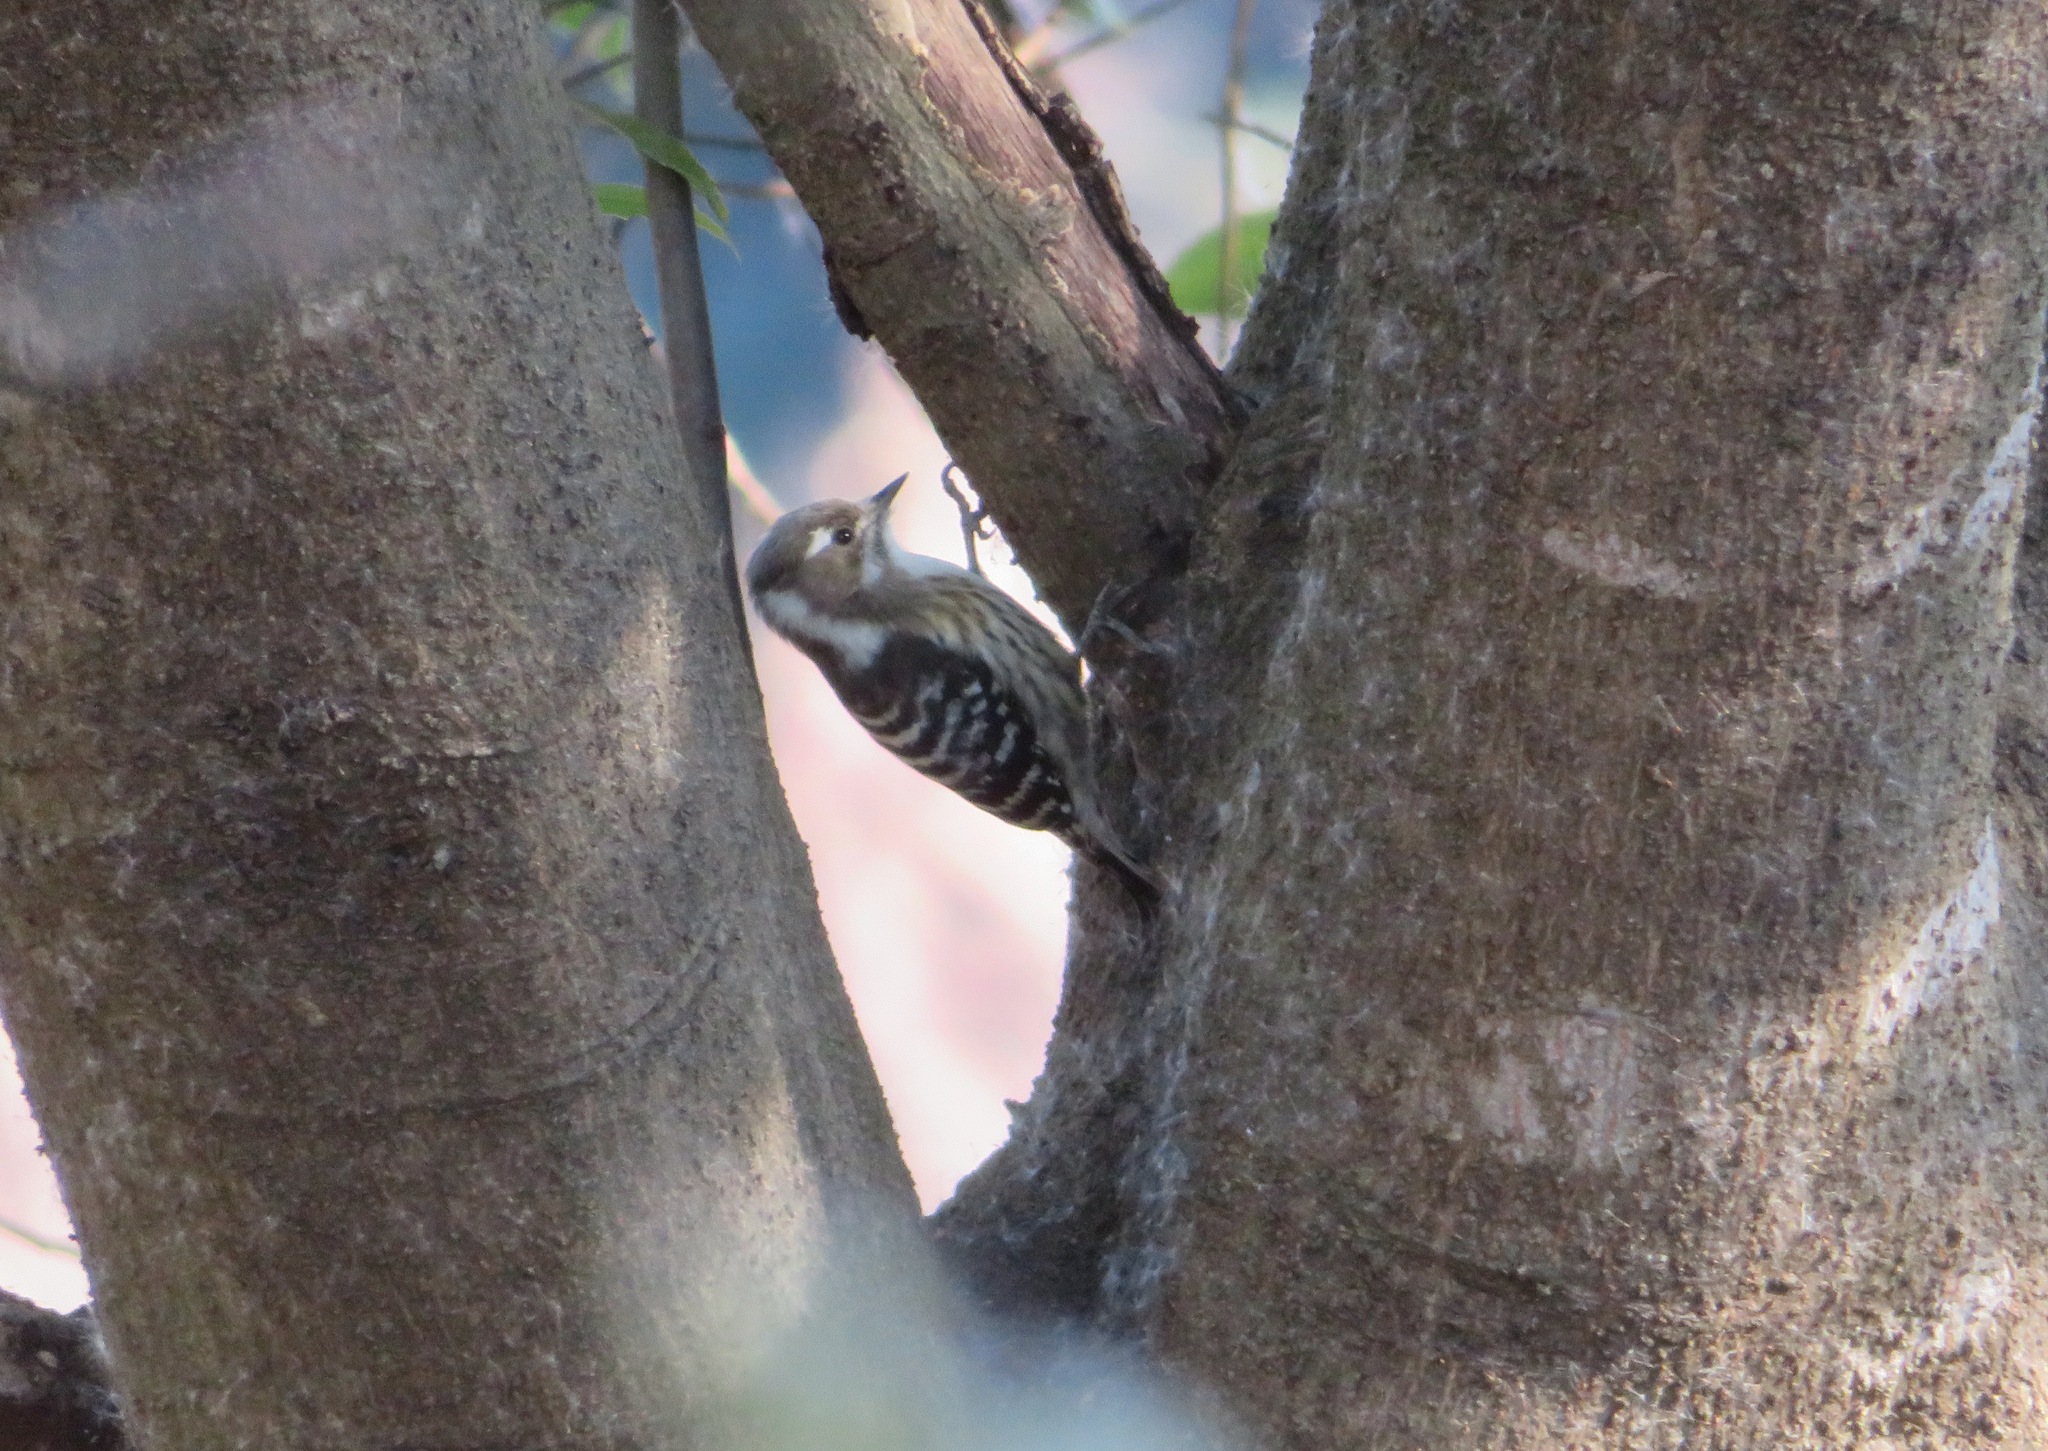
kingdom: Animalia
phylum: Chordata
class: Aves
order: Piciformes
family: Picidae
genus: Yungipicus
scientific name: Yungipicus kizuki
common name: Japanese pygmy woodpecker
